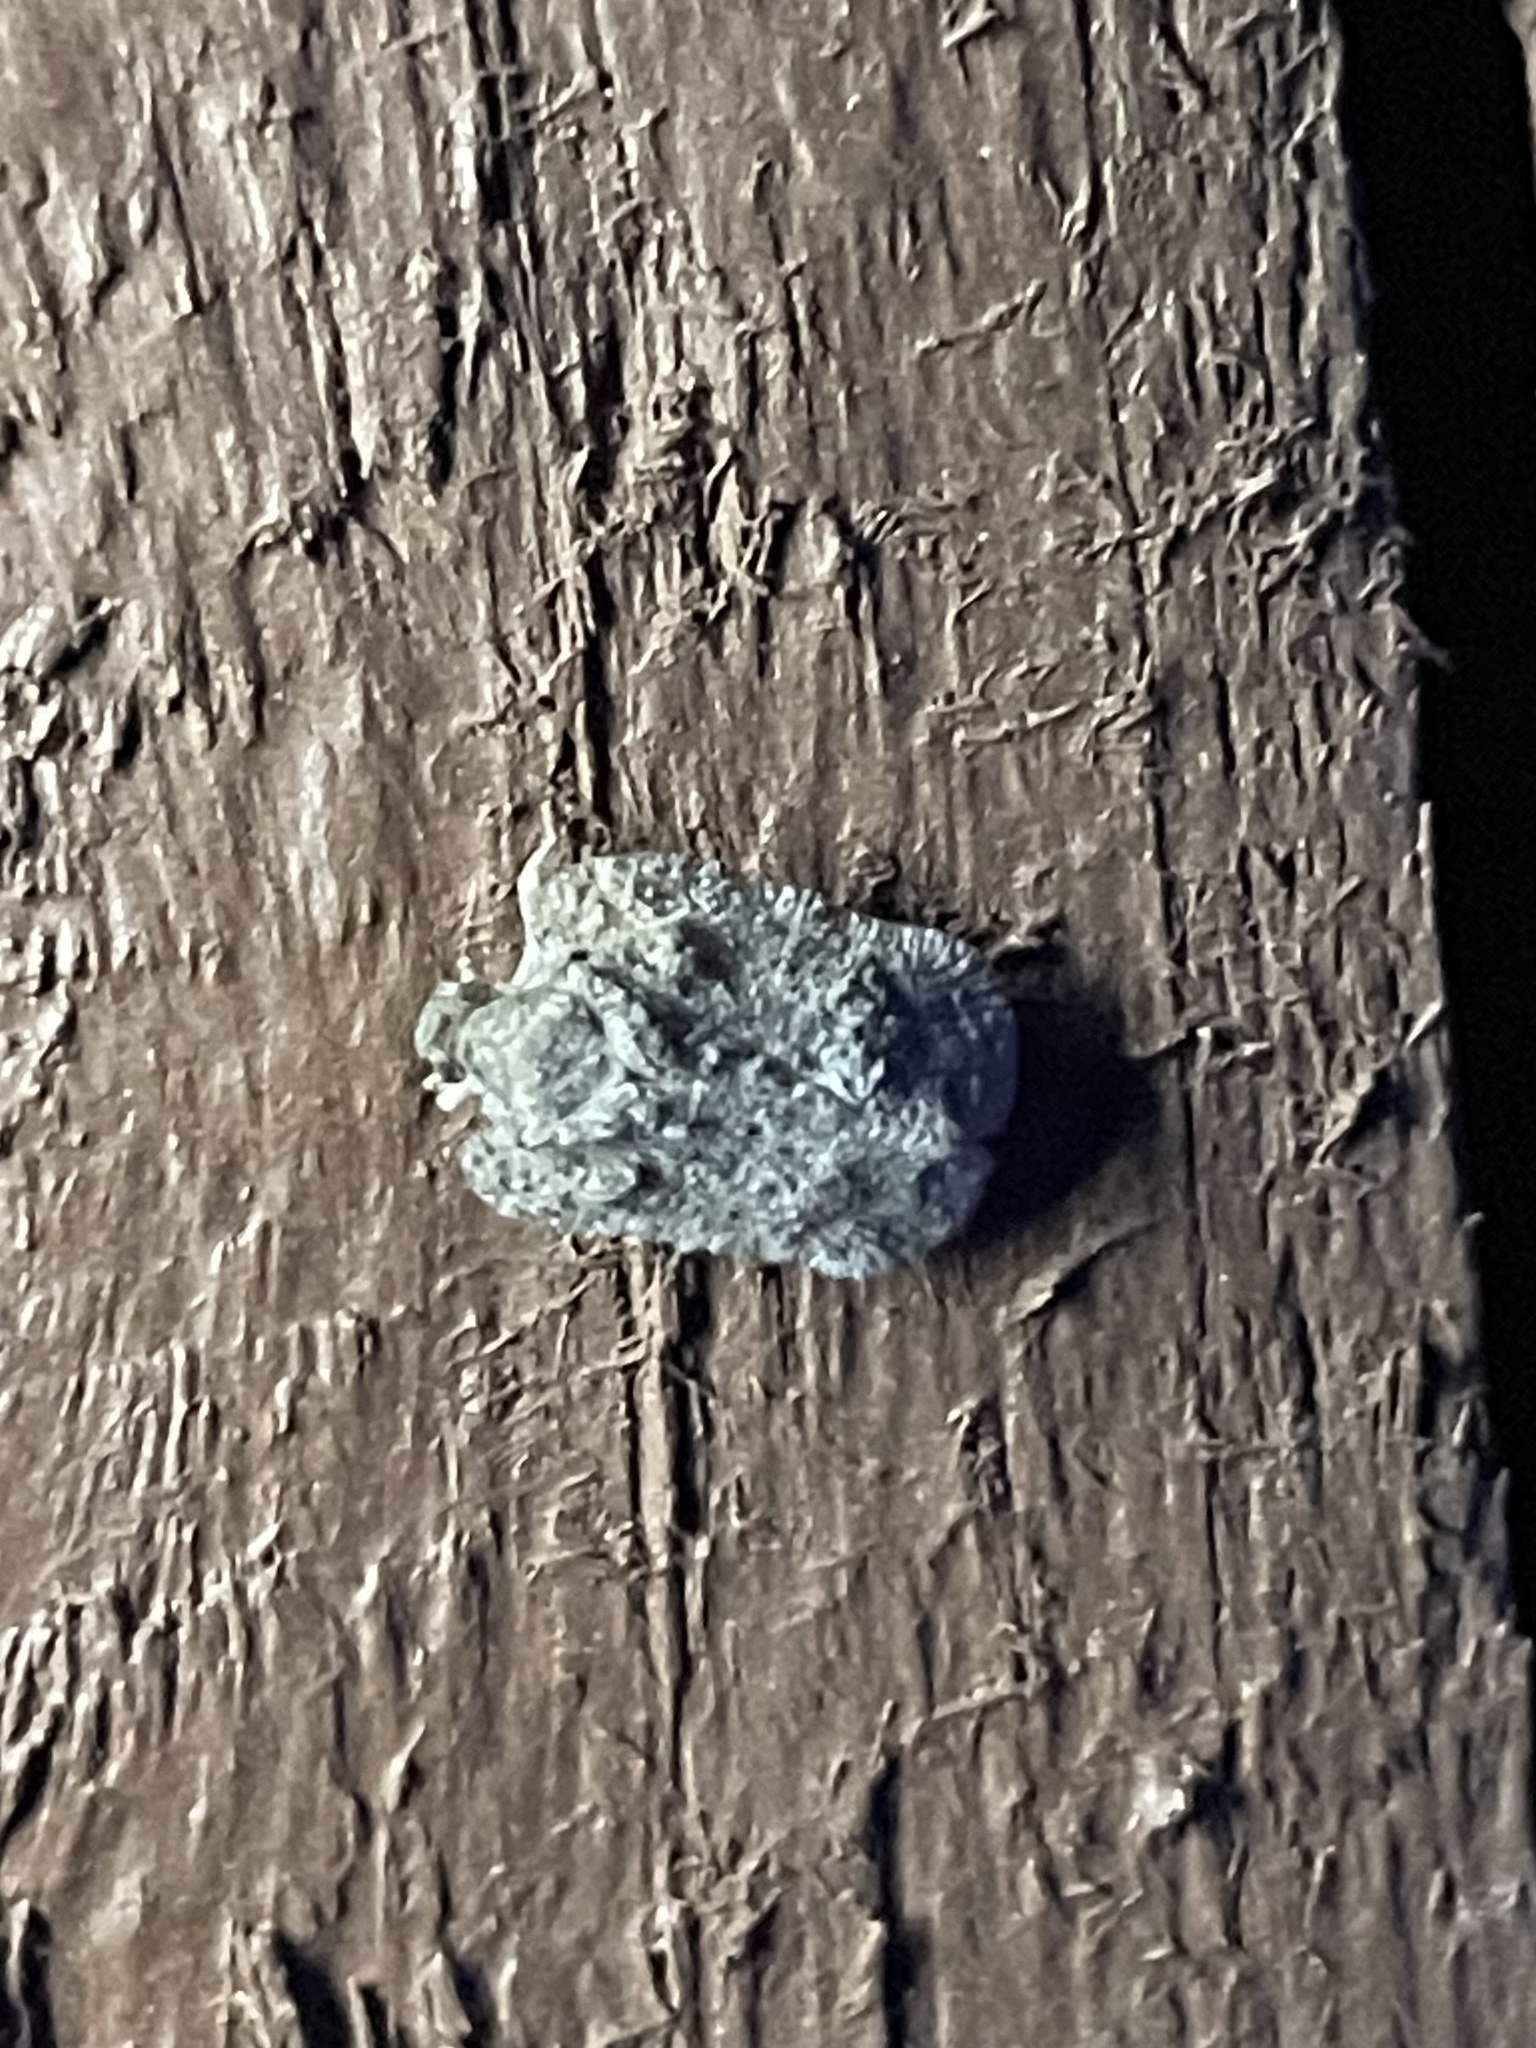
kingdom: Animalia
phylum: Arthropoda
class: Insecta
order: Hemiptera
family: Flatidae
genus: Flataloides
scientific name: Flataloides scabrosa
